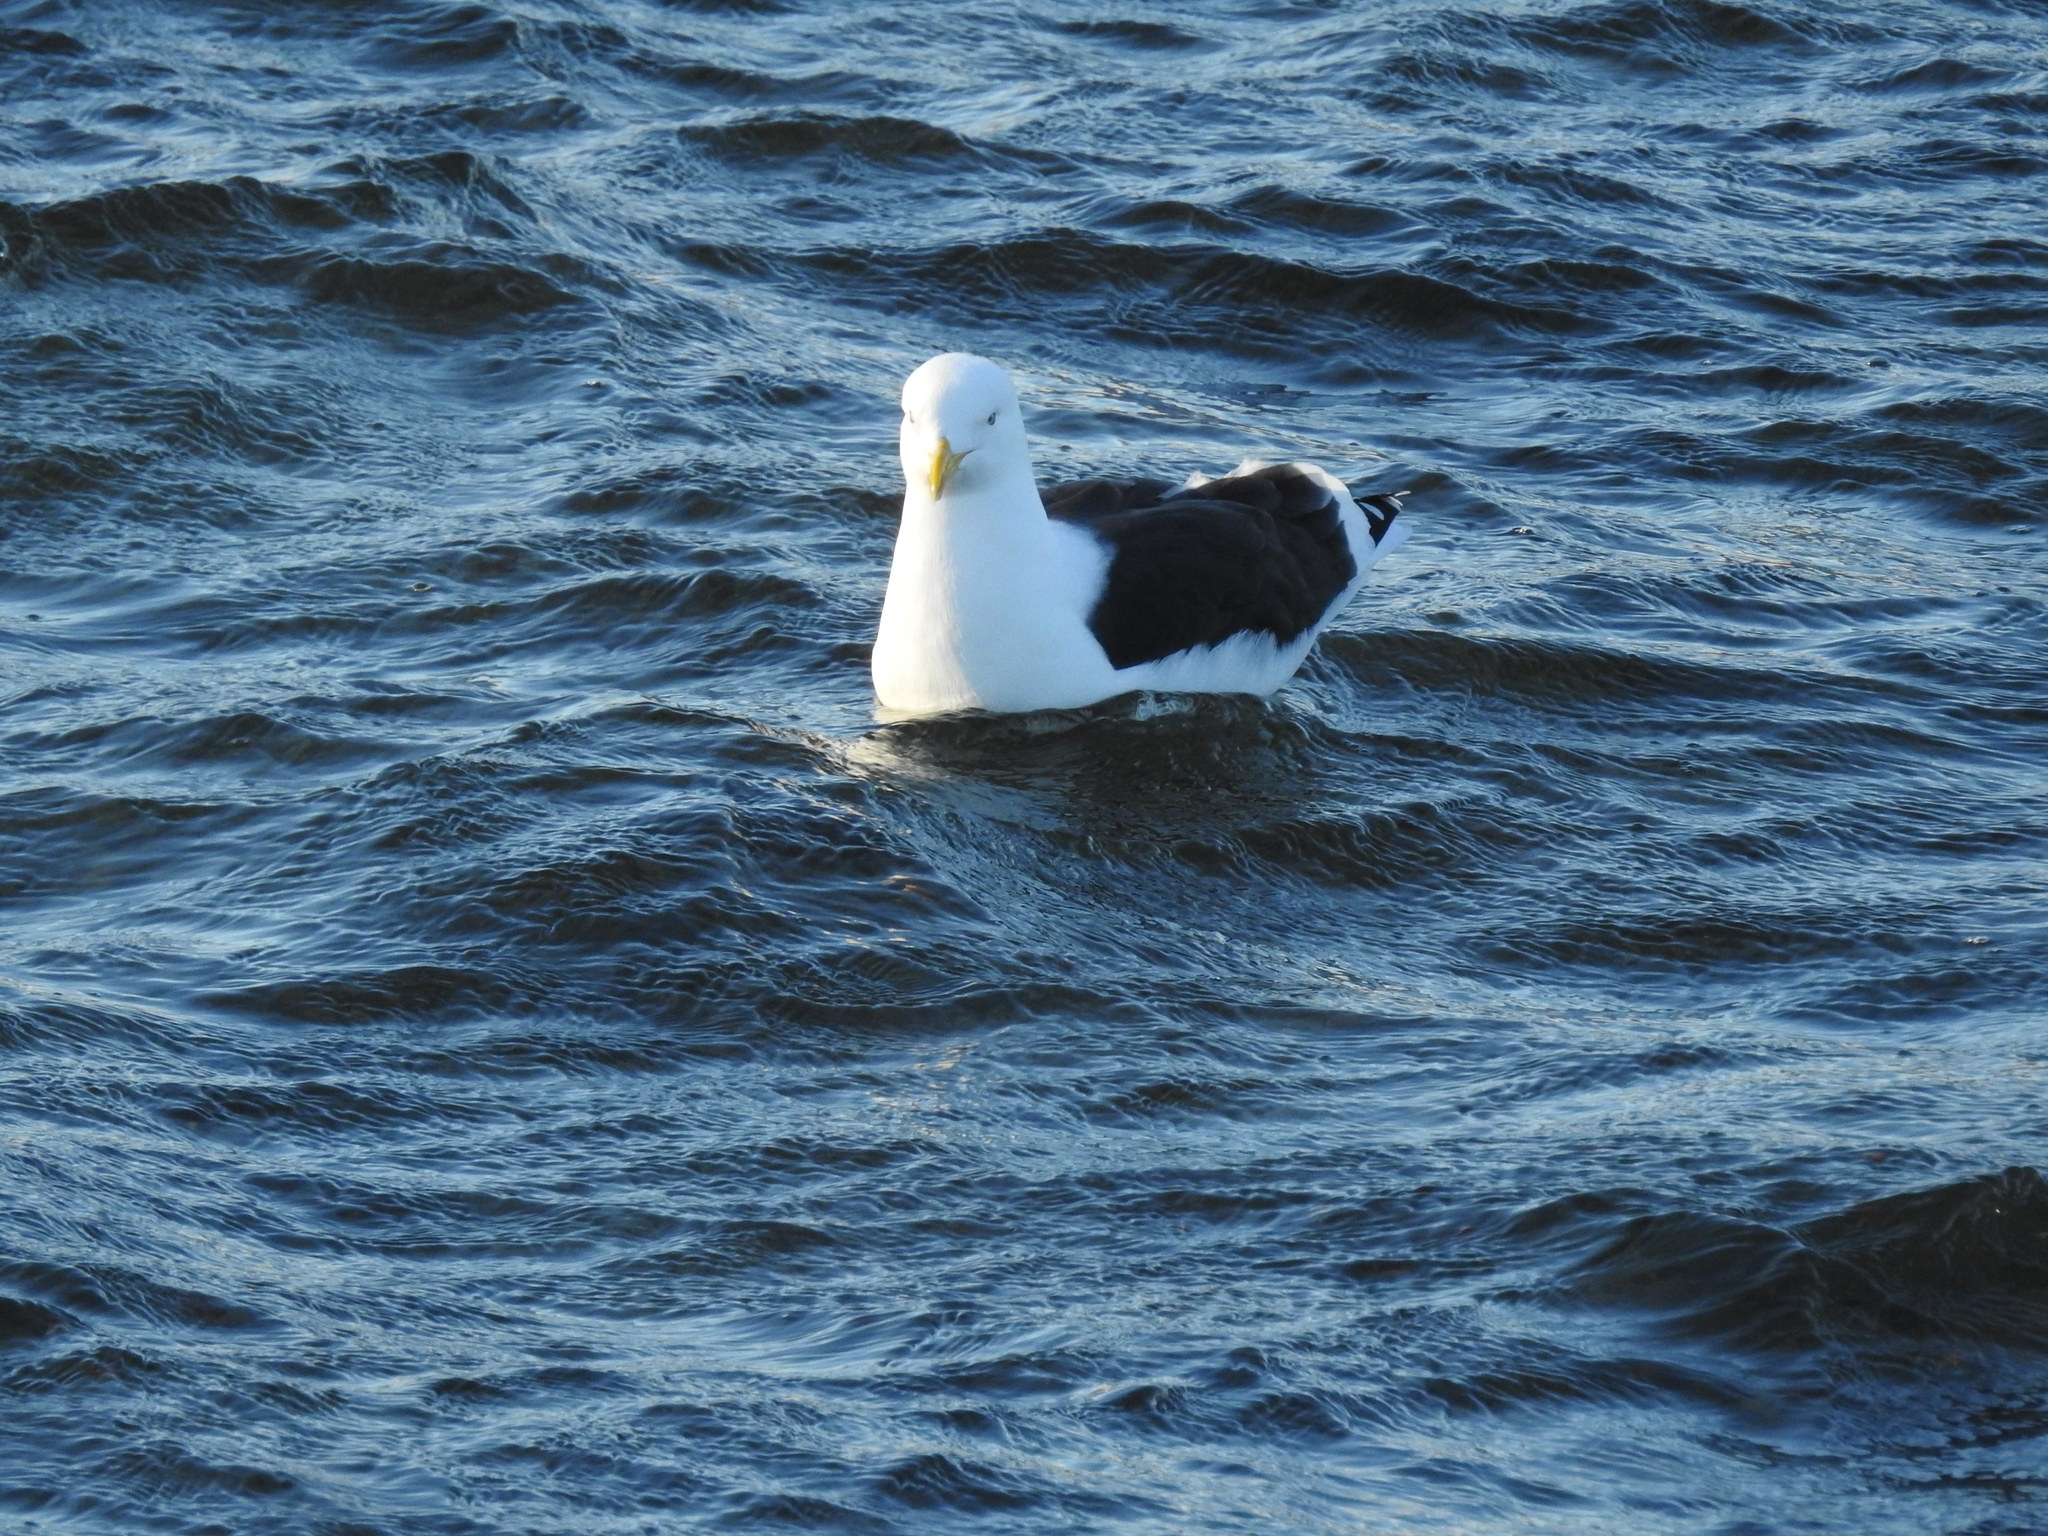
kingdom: Animalia
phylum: Chordata
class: Aves
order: Charadriiformes
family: Laridae
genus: Larus
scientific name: Larus dominicanus
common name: Kelp gull
